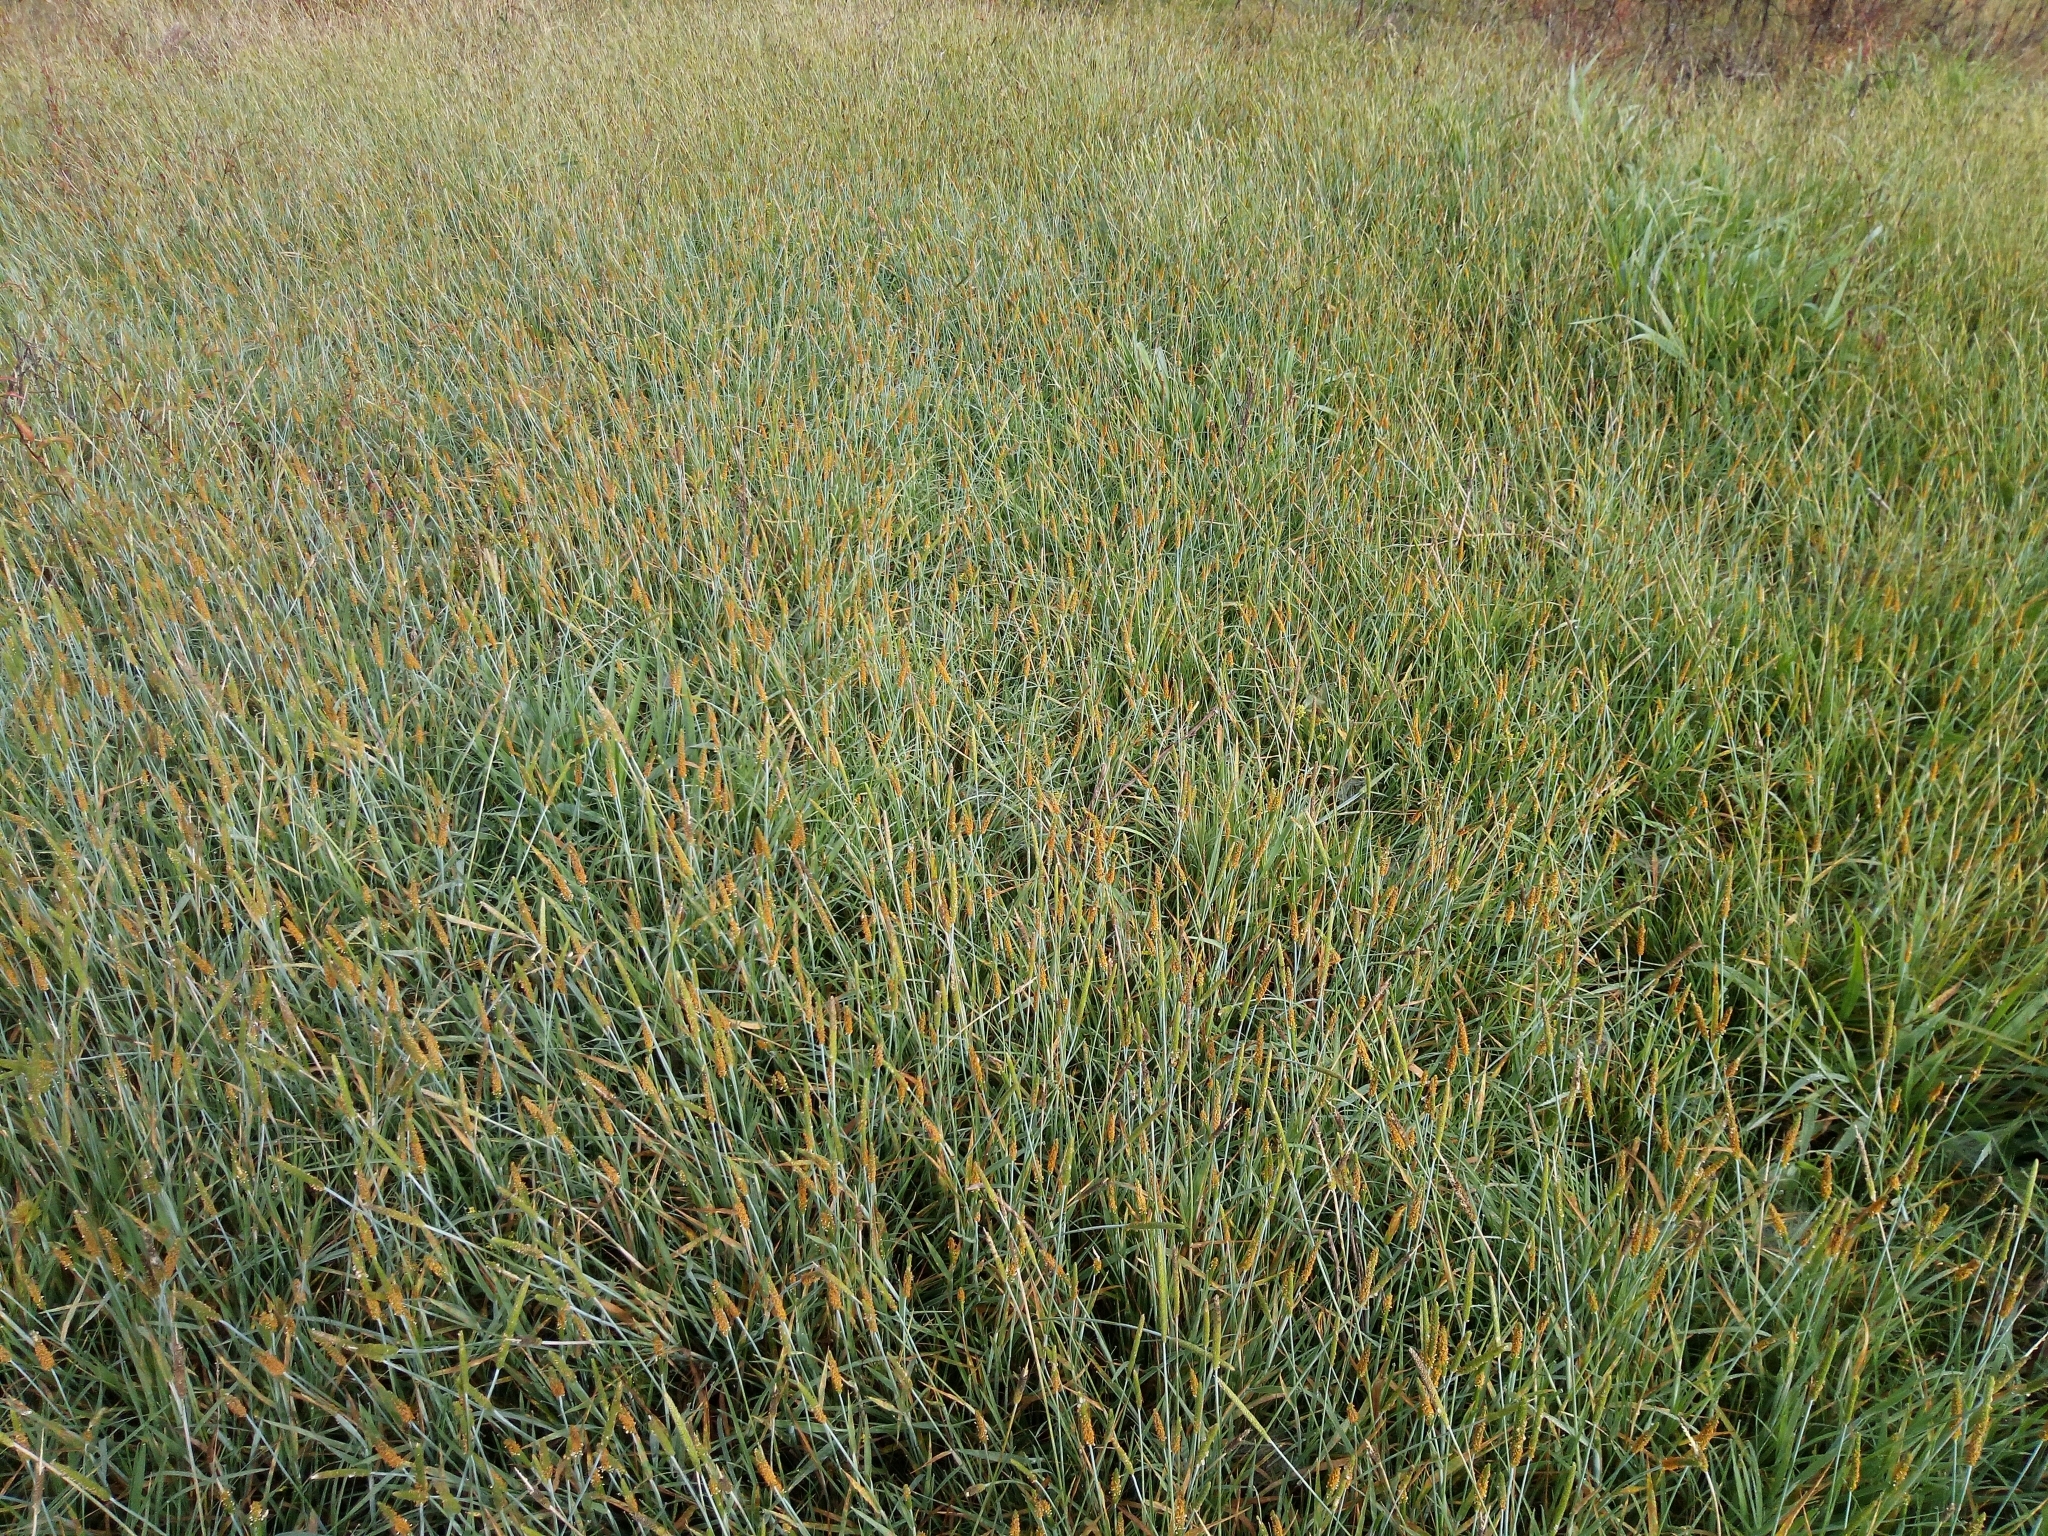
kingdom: Plantae
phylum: Tracheophyta
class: Liliopsida
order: Poales
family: Poaceae
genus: Alopecurus
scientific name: Alopecurus aequalis
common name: Orange foxtail
